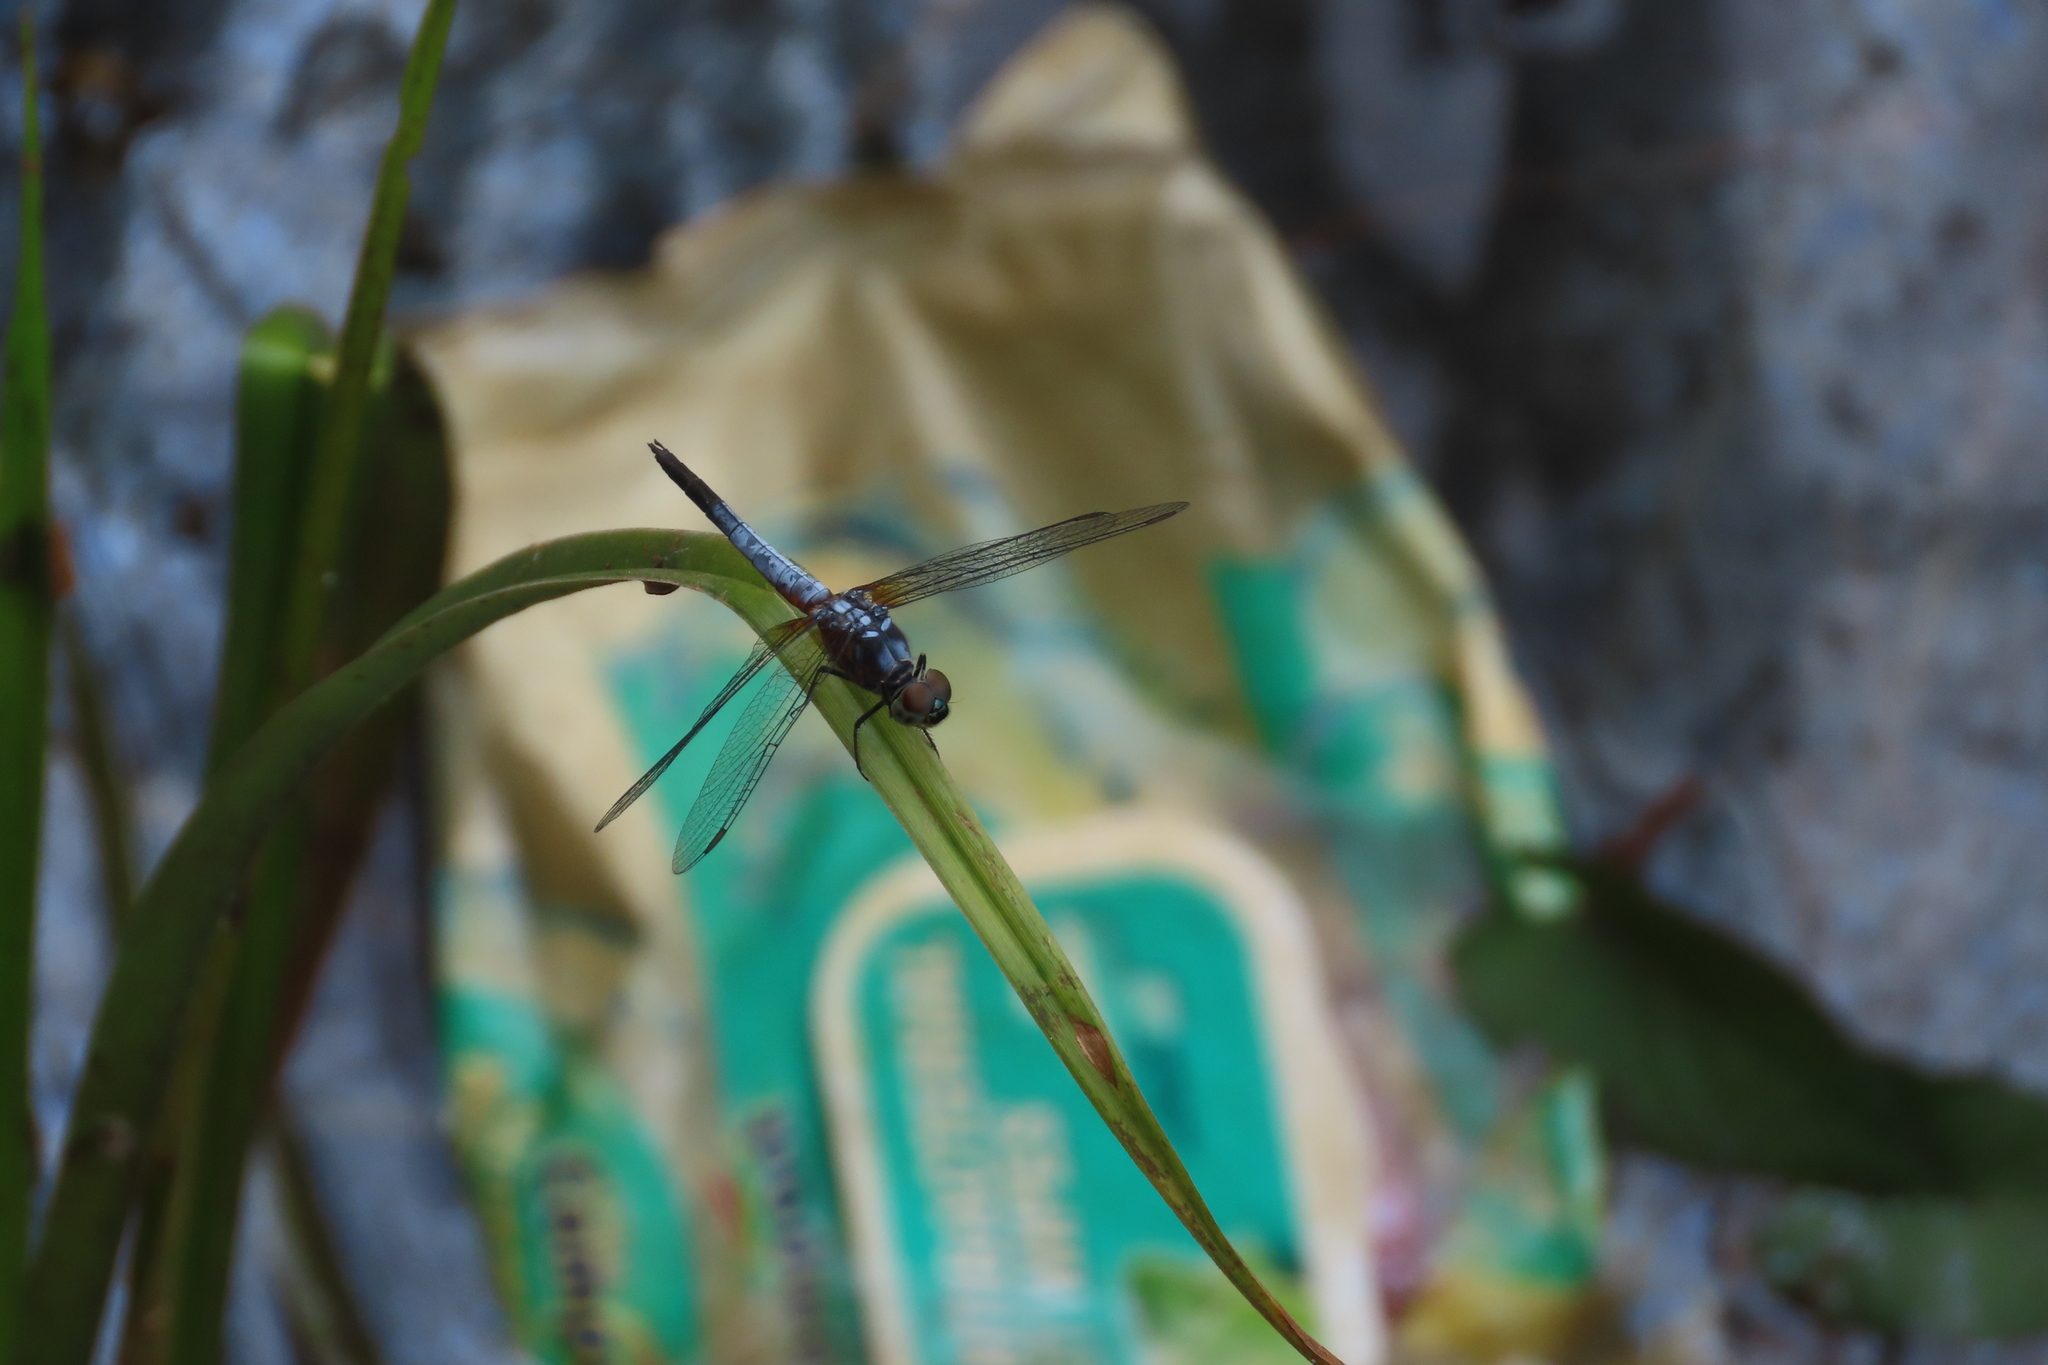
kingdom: Animalia
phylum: Arthropoda
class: Insecta
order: Odonata
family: Libellulidae
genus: Brachydiplax
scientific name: Brachydiplax chalybea
